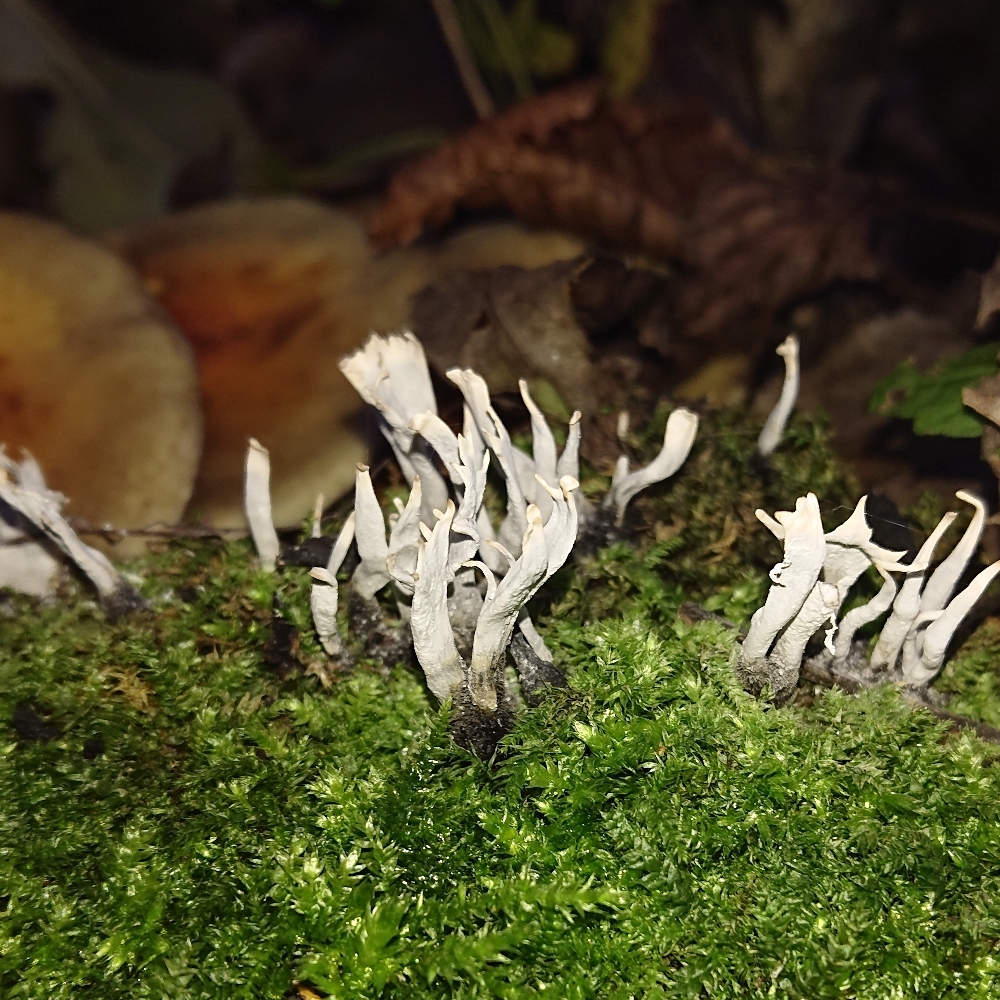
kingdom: Fungi
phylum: Ascomycota
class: Sordariomycetes
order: Xylariales
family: Xylariaceae
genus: Xylaria
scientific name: Xylaria hypoxylon
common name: Candle-snuff fungus
